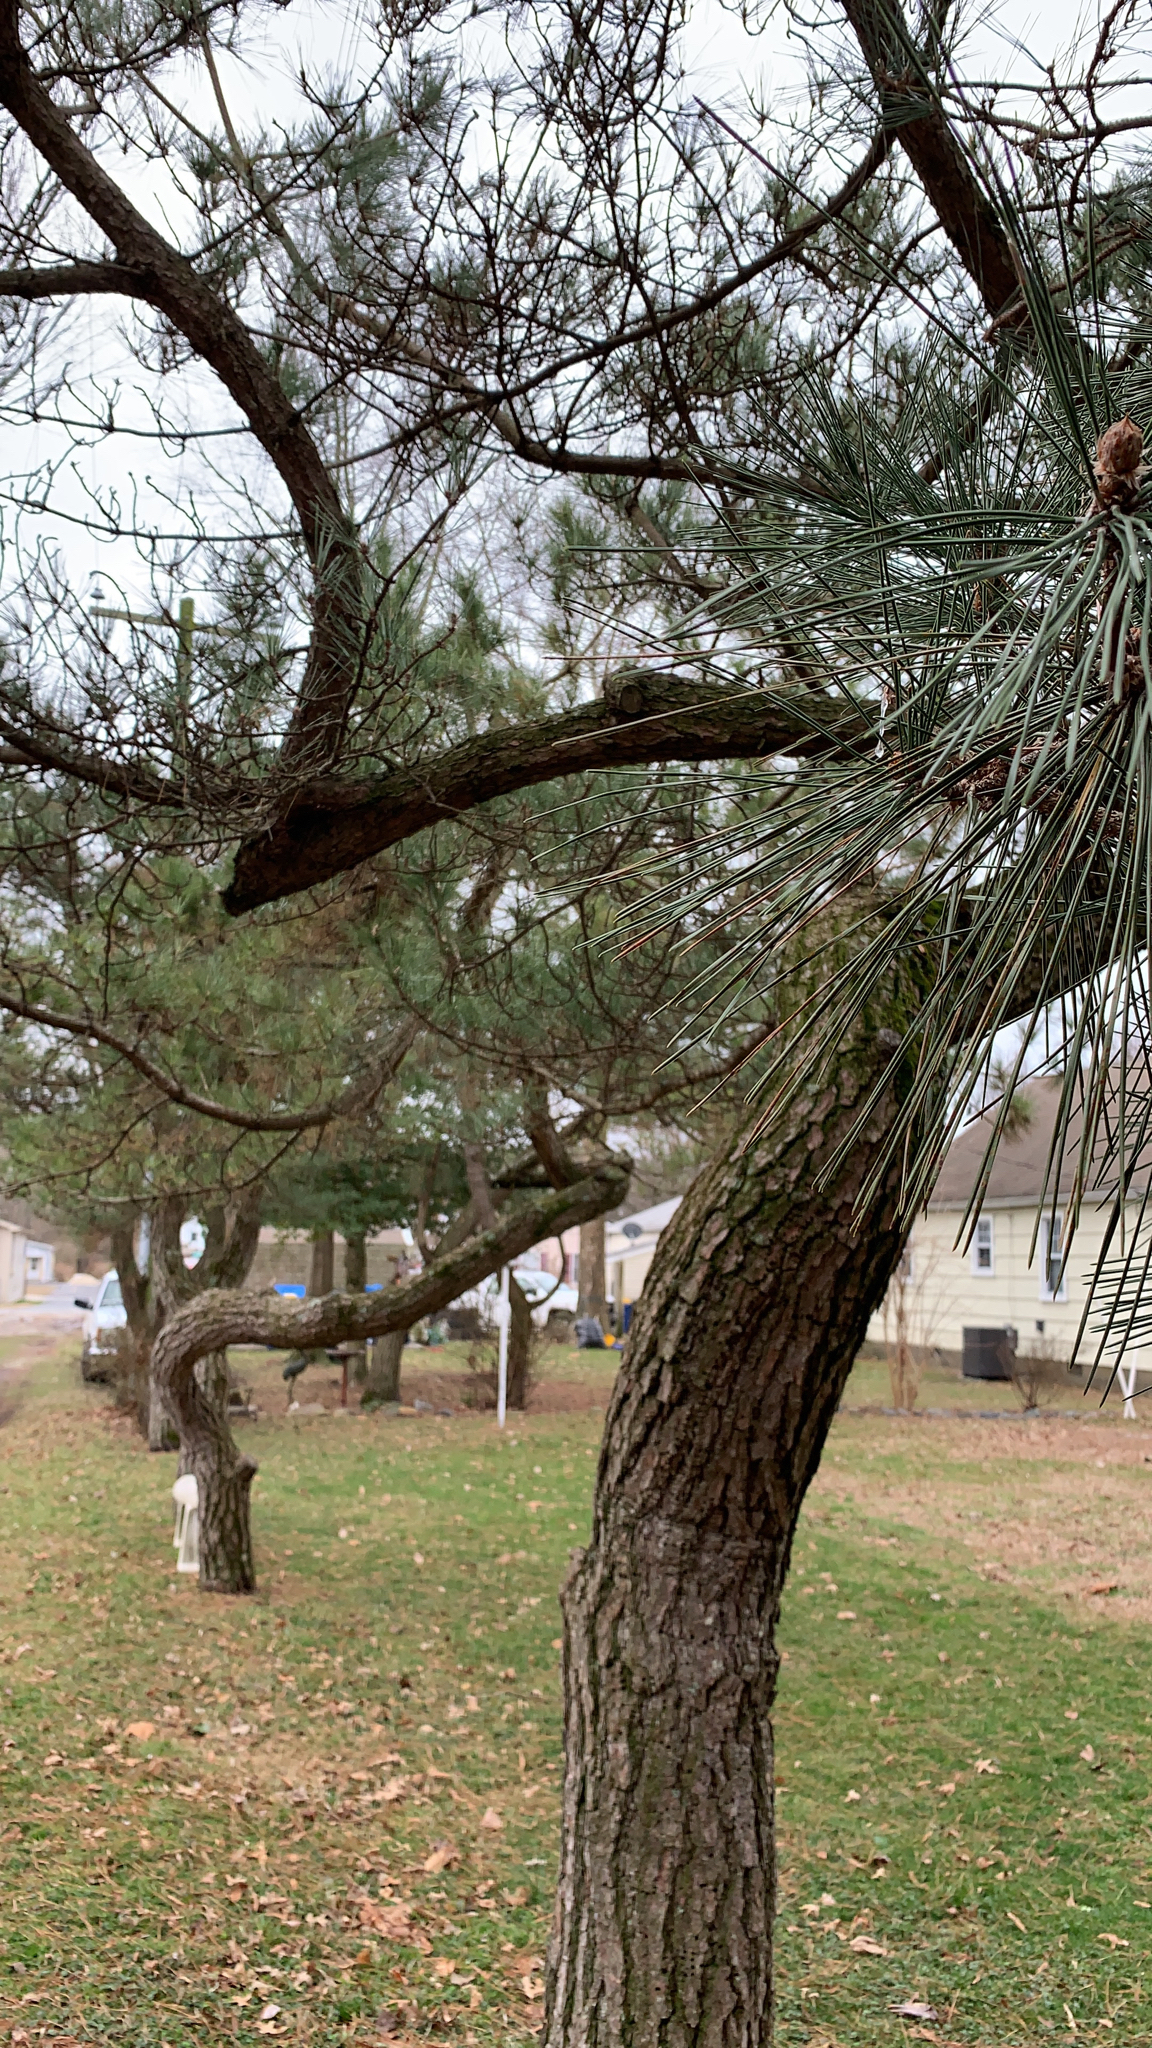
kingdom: Plantae
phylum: Tracheophyta
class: Pinopsida
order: Pinales
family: Pinaceae
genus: Pinus
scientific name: Pinus
